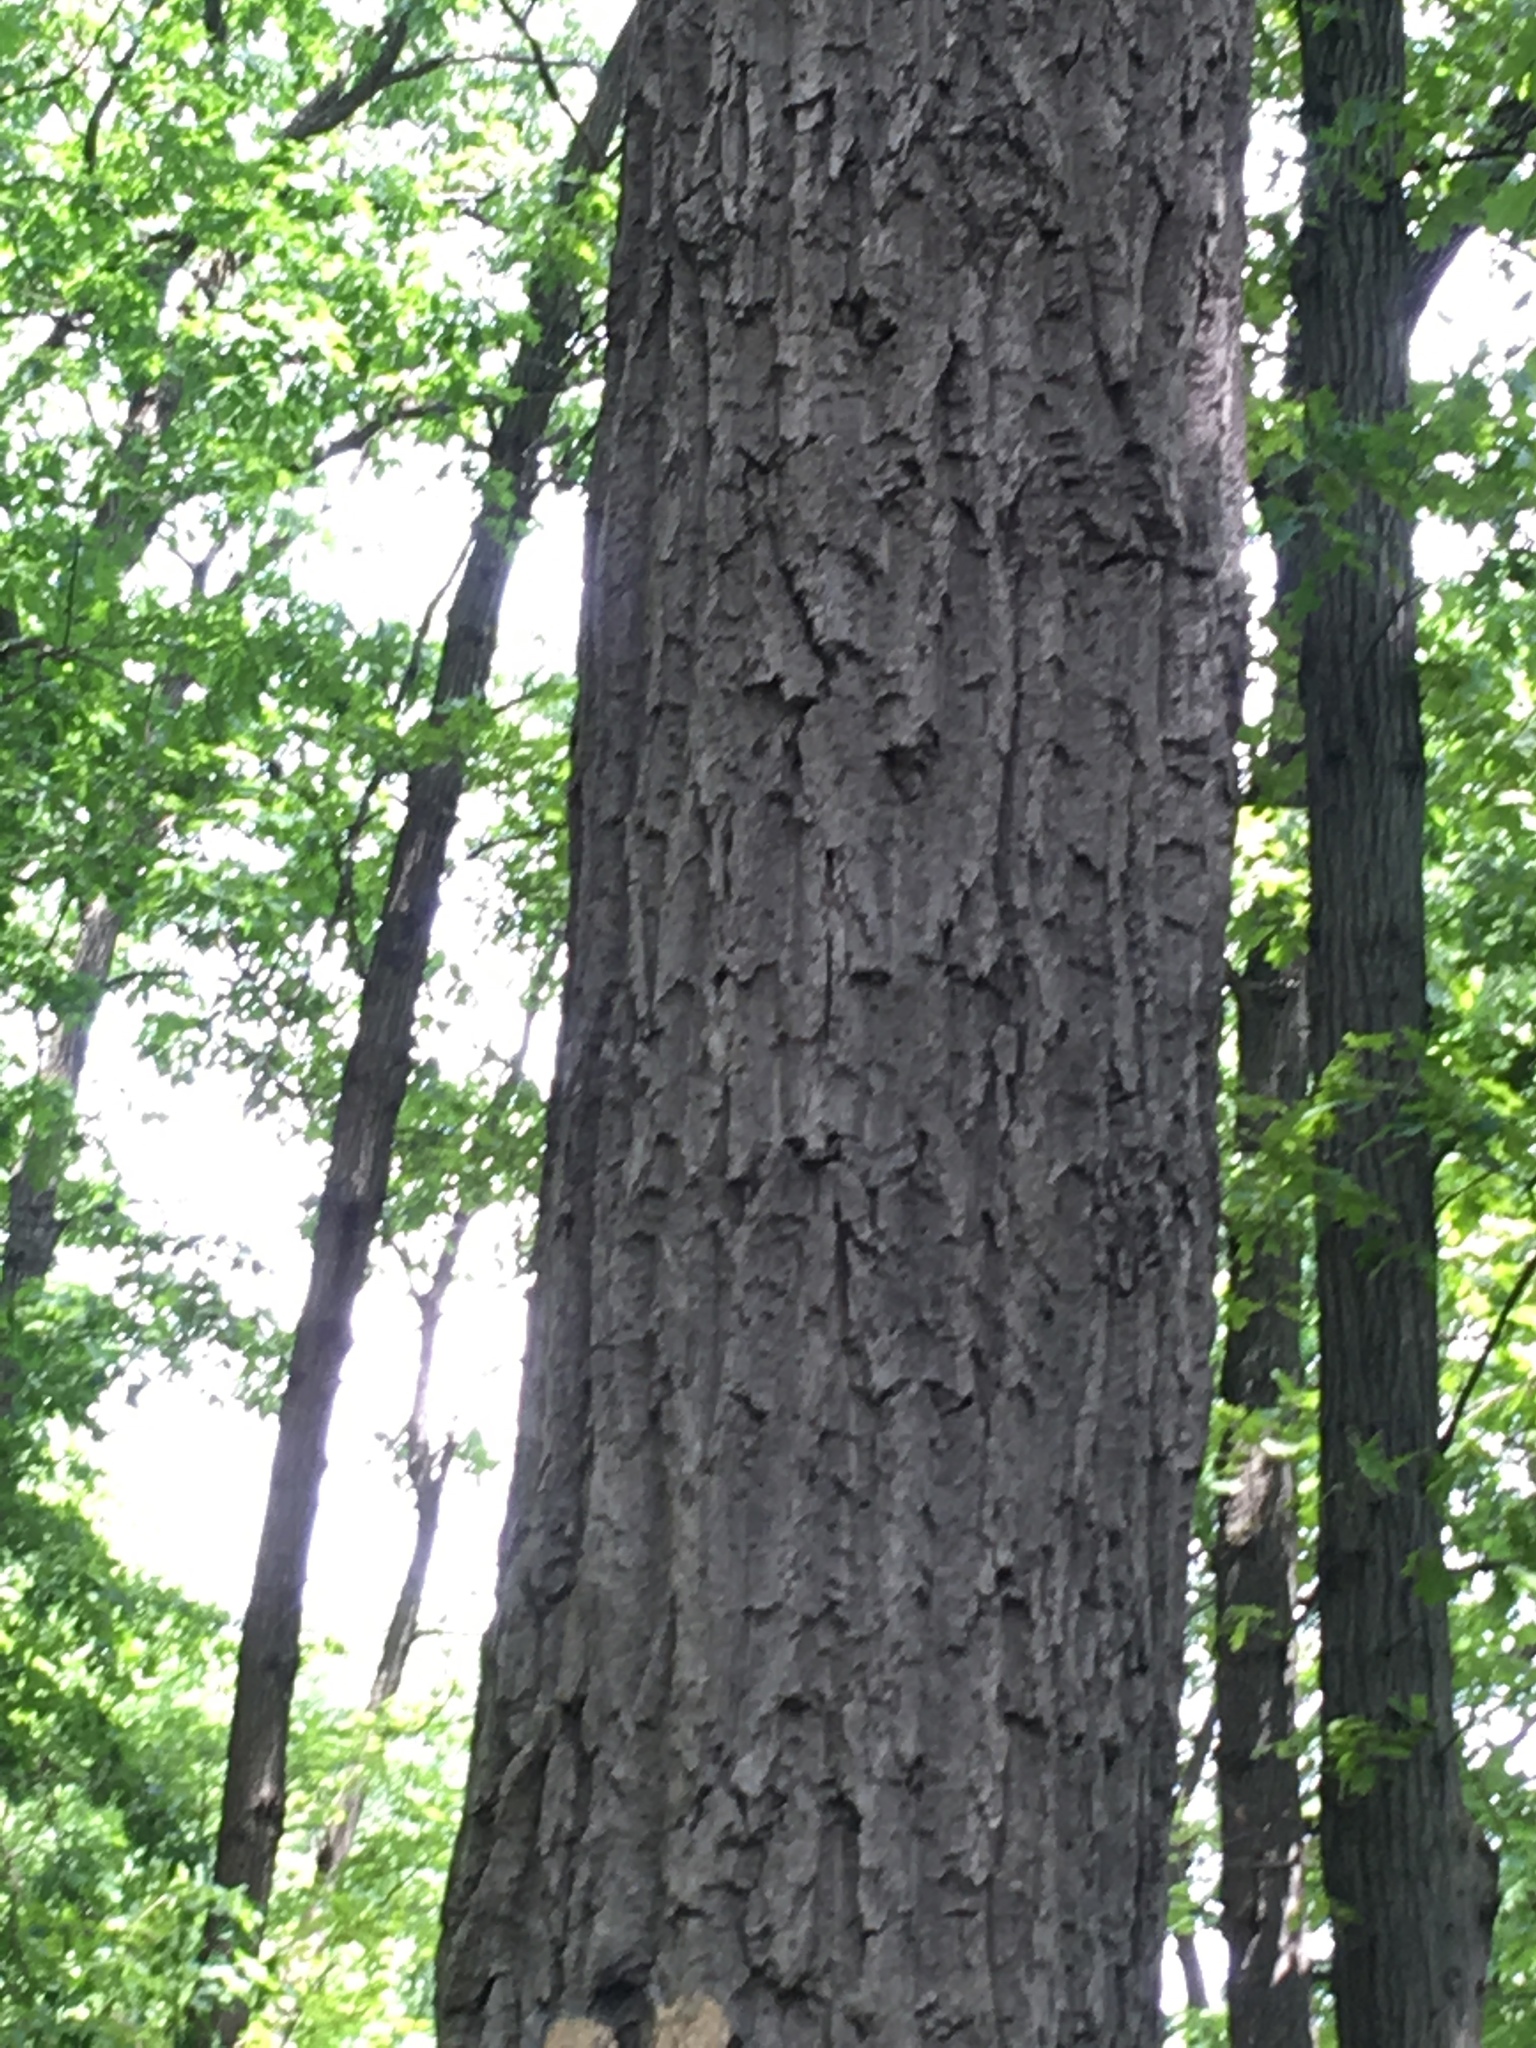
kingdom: Plantae
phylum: Tracheophyta
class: Magnoliopsida
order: Fagales
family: Fagaceae
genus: Quercus
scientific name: Quercus montana
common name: Chestnut oak
